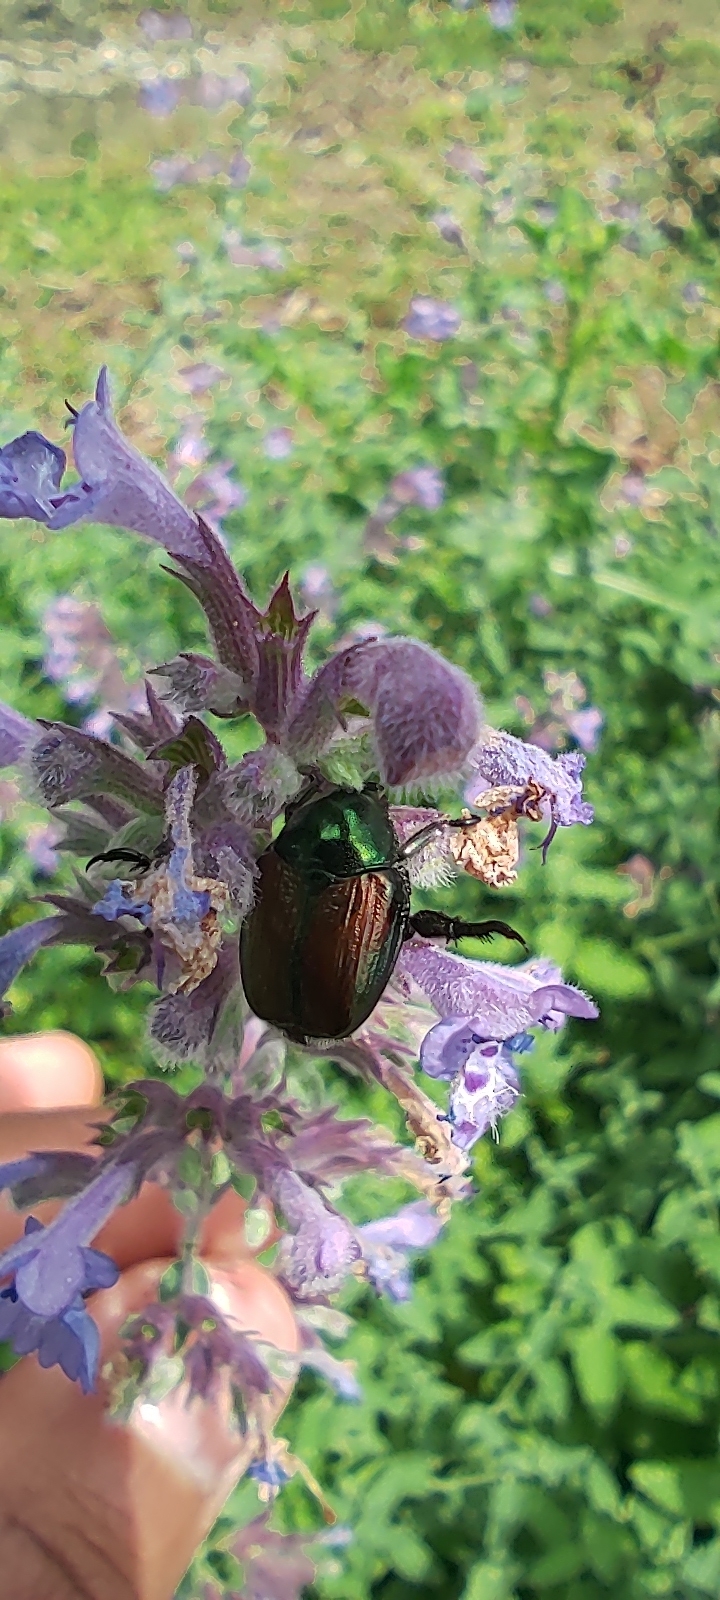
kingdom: Animalia
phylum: Arthropoda
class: Insecta
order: Coleoptera
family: Scarabaeidae
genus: Popillia
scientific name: Popillia japonica
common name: Japanese beetle
